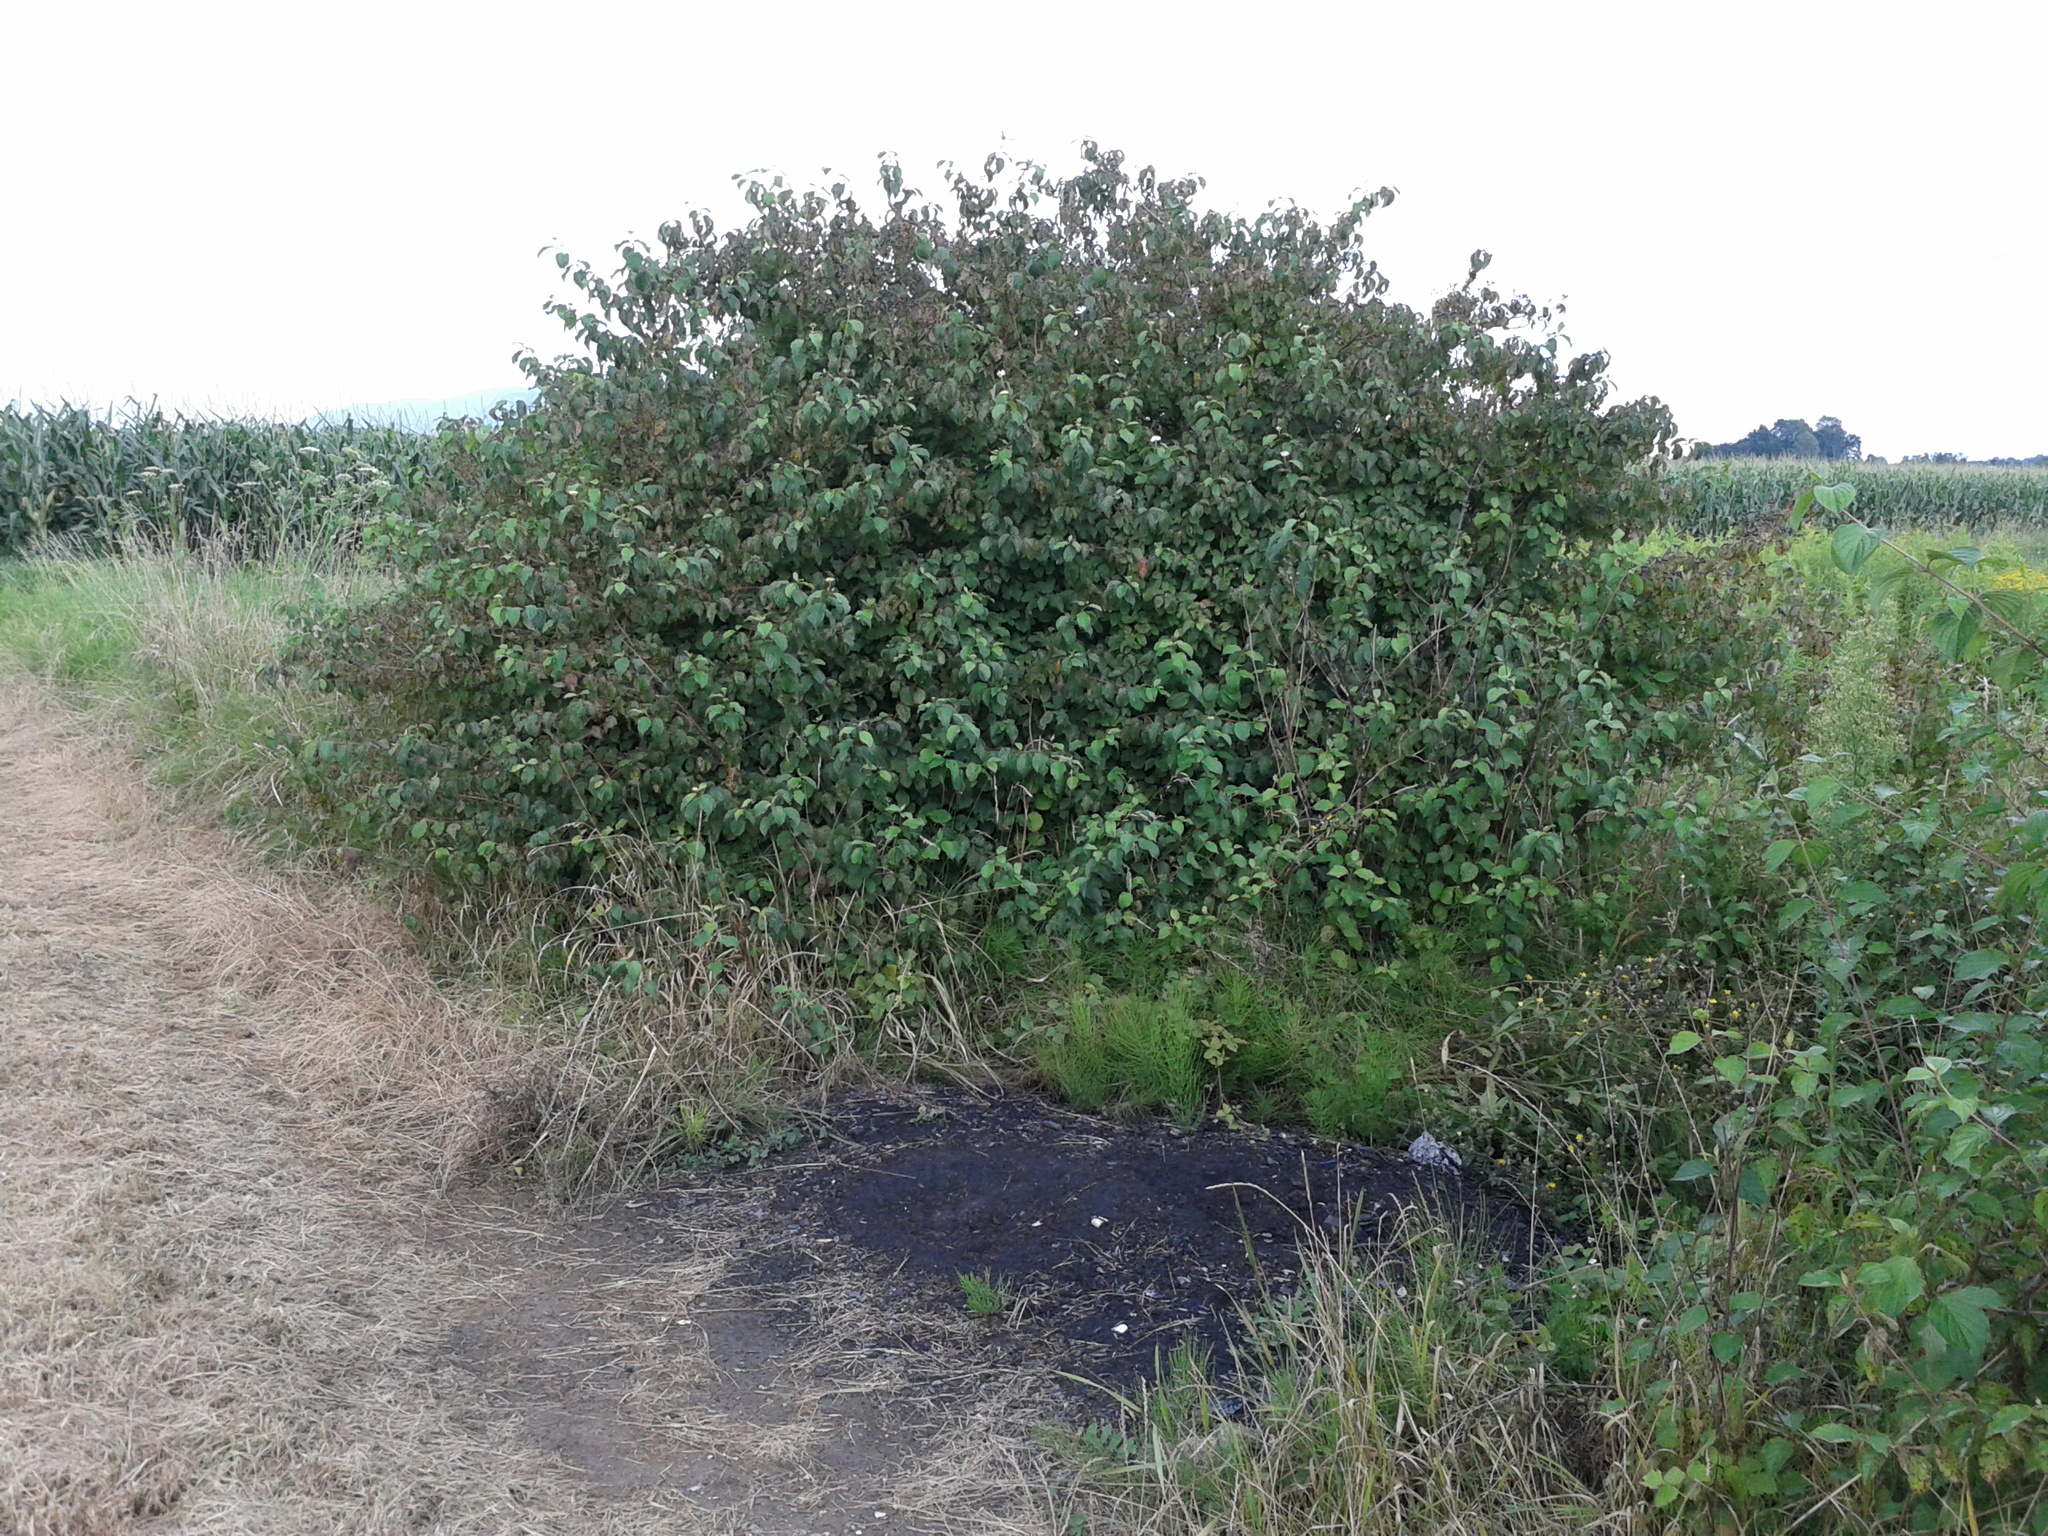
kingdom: Plantae
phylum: Tracheophyta
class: Magnoliopsida
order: Cornales
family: Cornaceae
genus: Cornus
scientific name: Cornus sanguinea
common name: Dogwood
